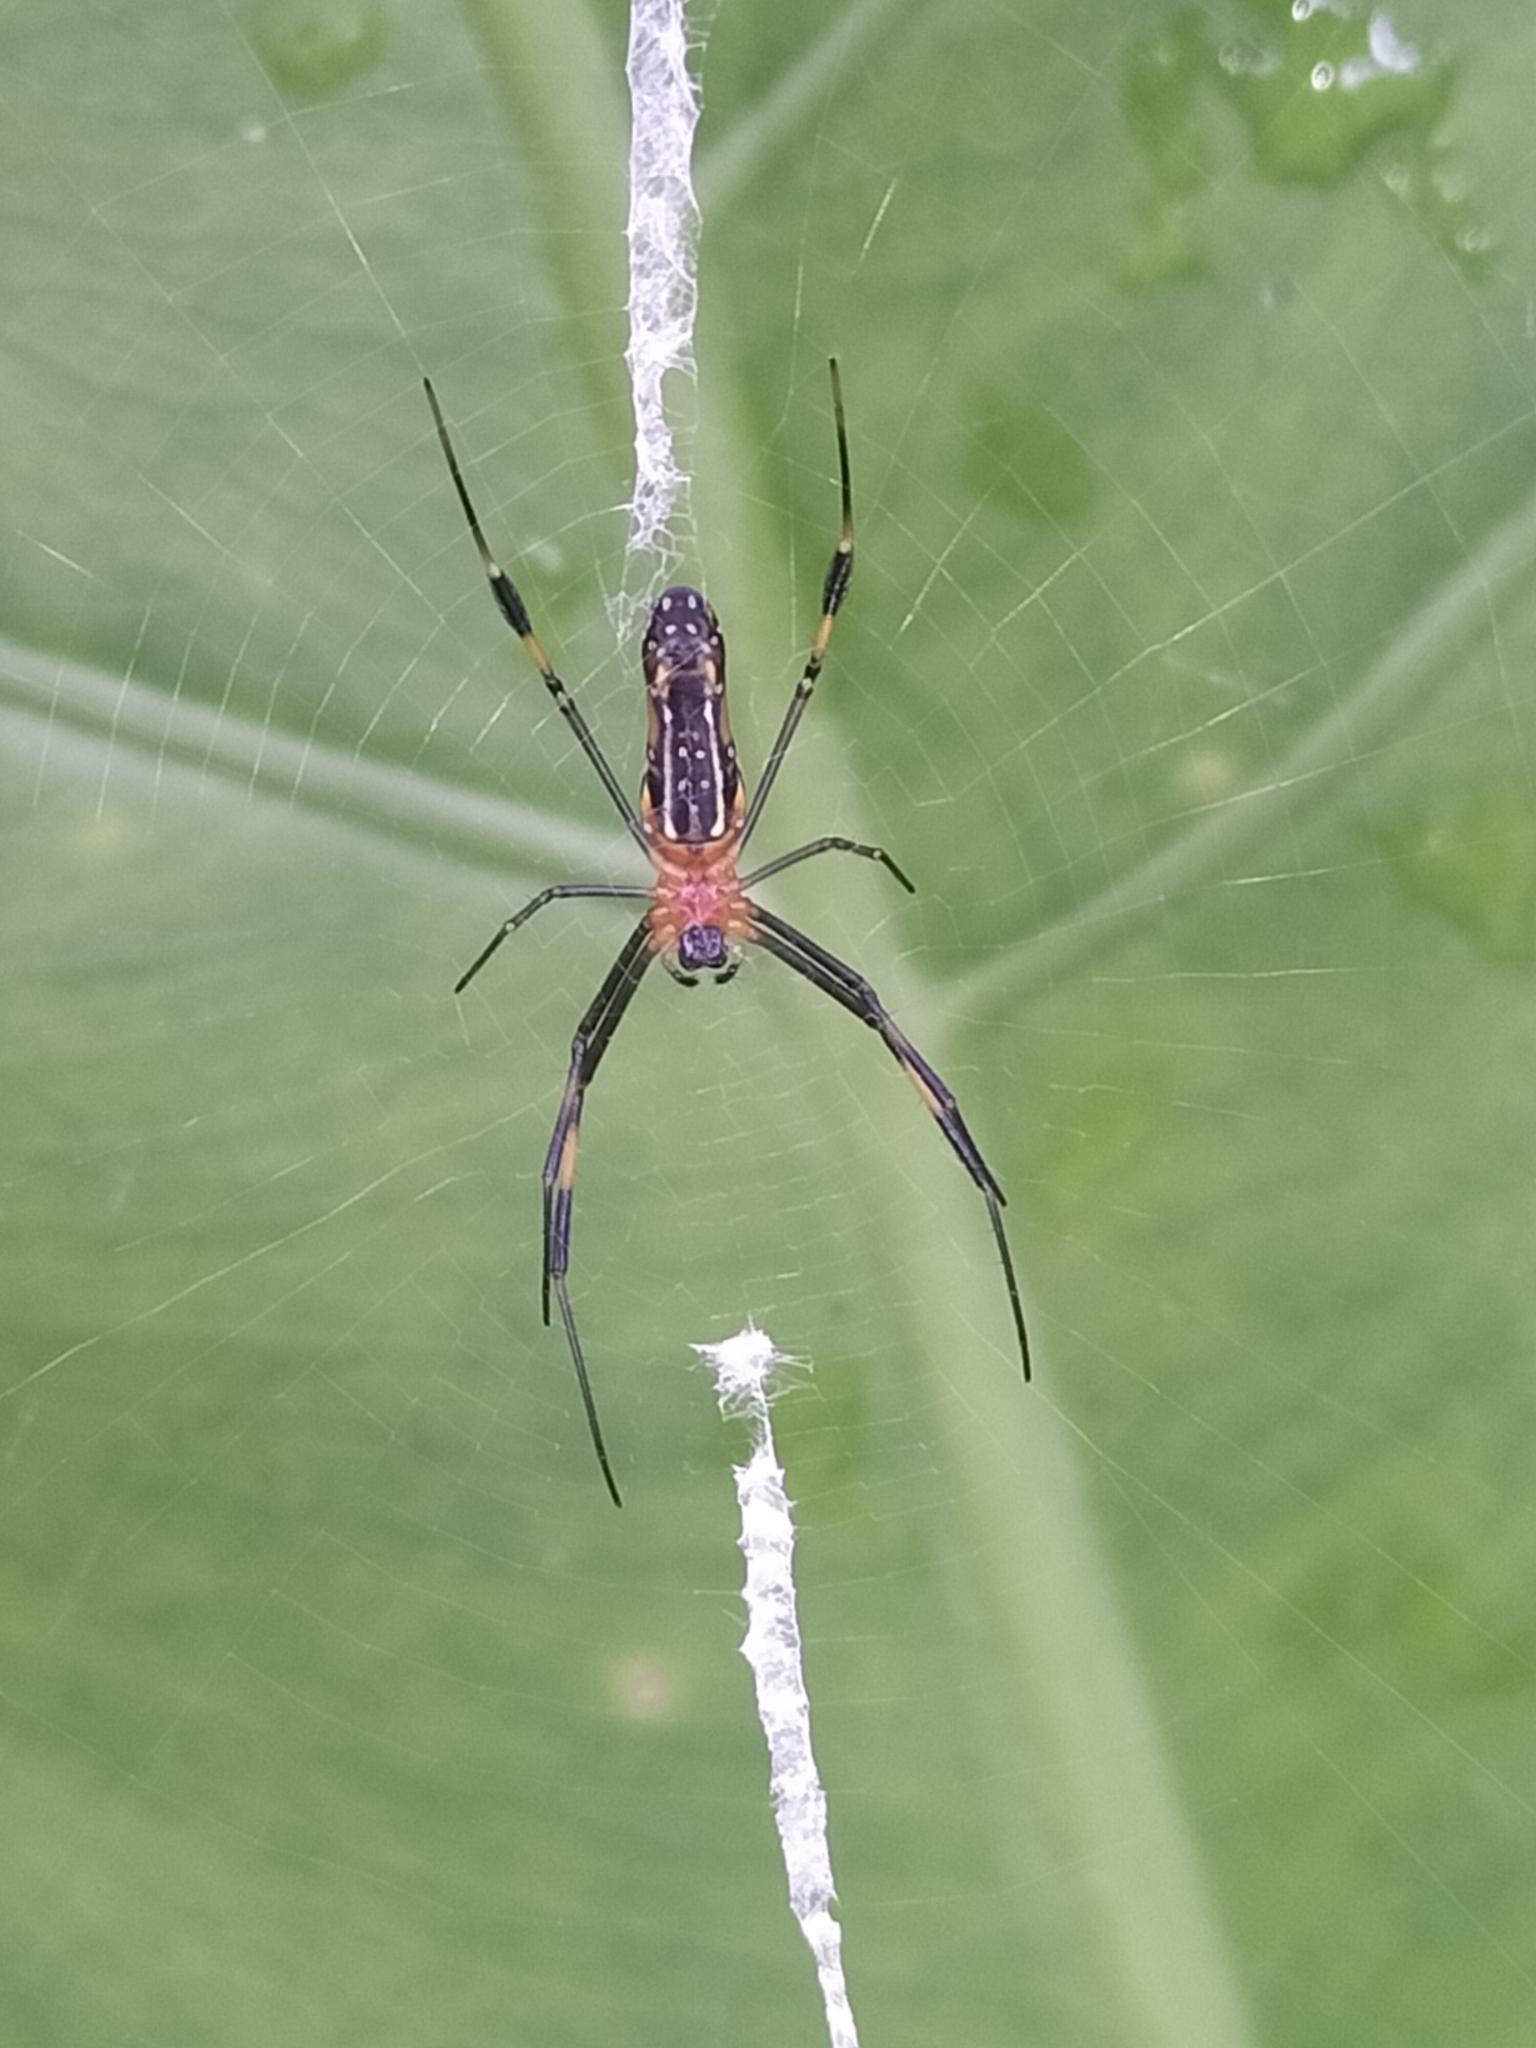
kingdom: Animalia
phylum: Arthropoda
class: Arachnida
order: Araneae
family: Araneidae
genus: Nephila
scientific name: Nephila pilipes
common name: Giant golden orb weaver
